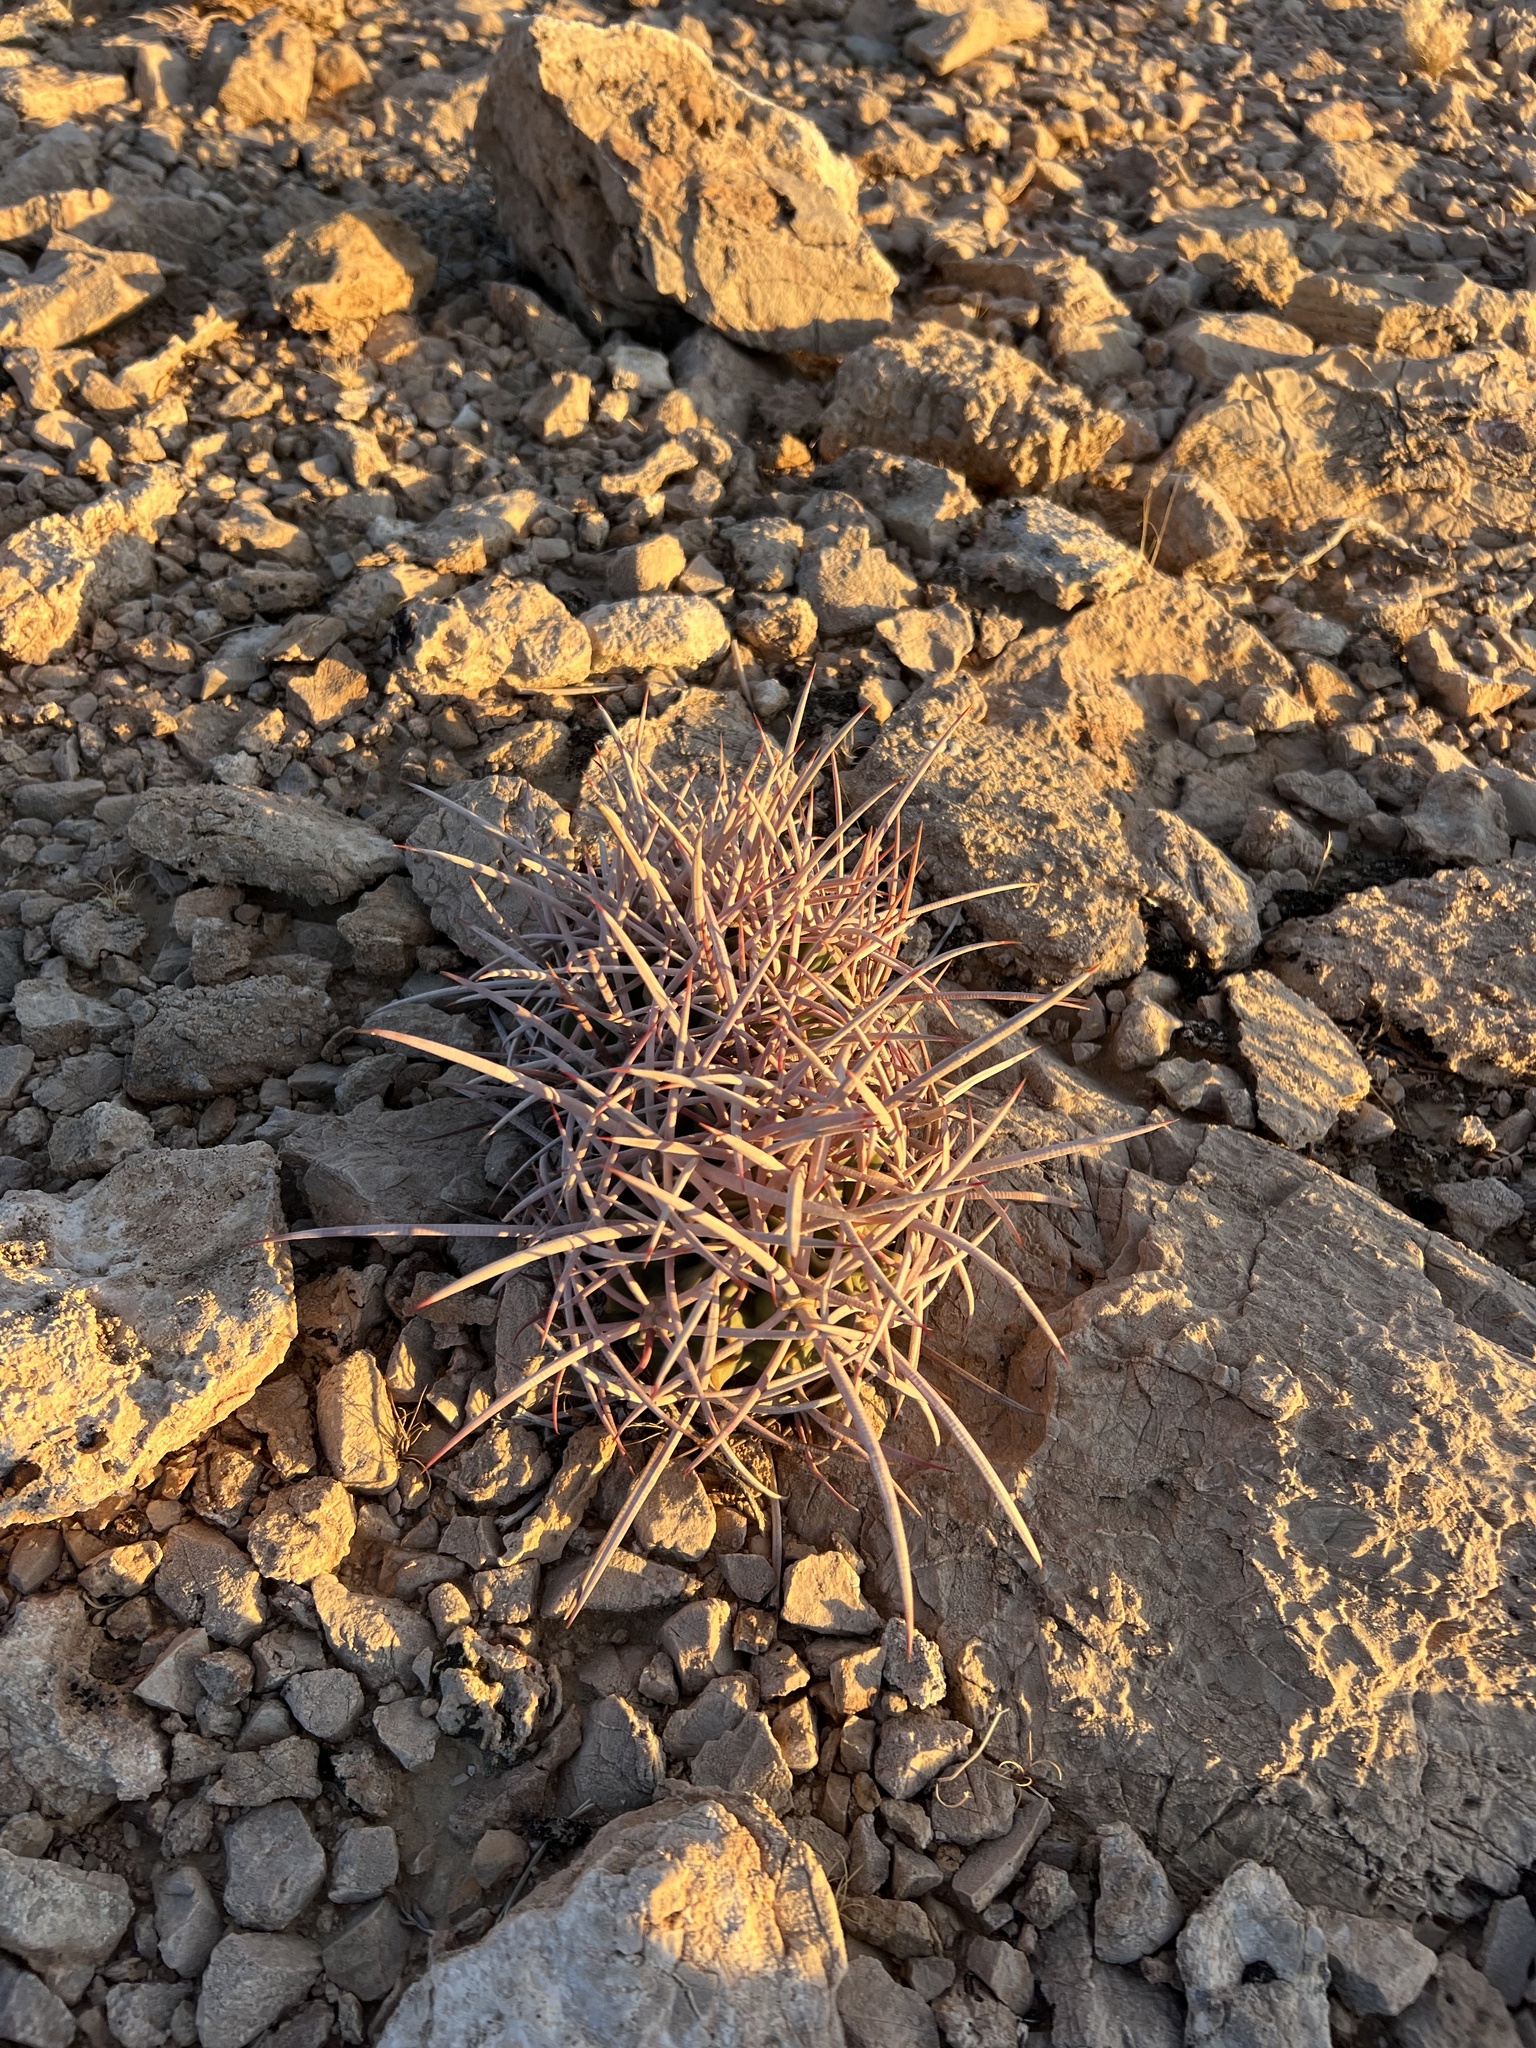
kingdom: Plantae
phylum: Tracheophyta
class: Magnoliopsida
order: Caryophyllales
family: Cactaceae
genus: Echinocactus
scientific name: Echinocactus polycephalus
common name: Cottontop cactus
